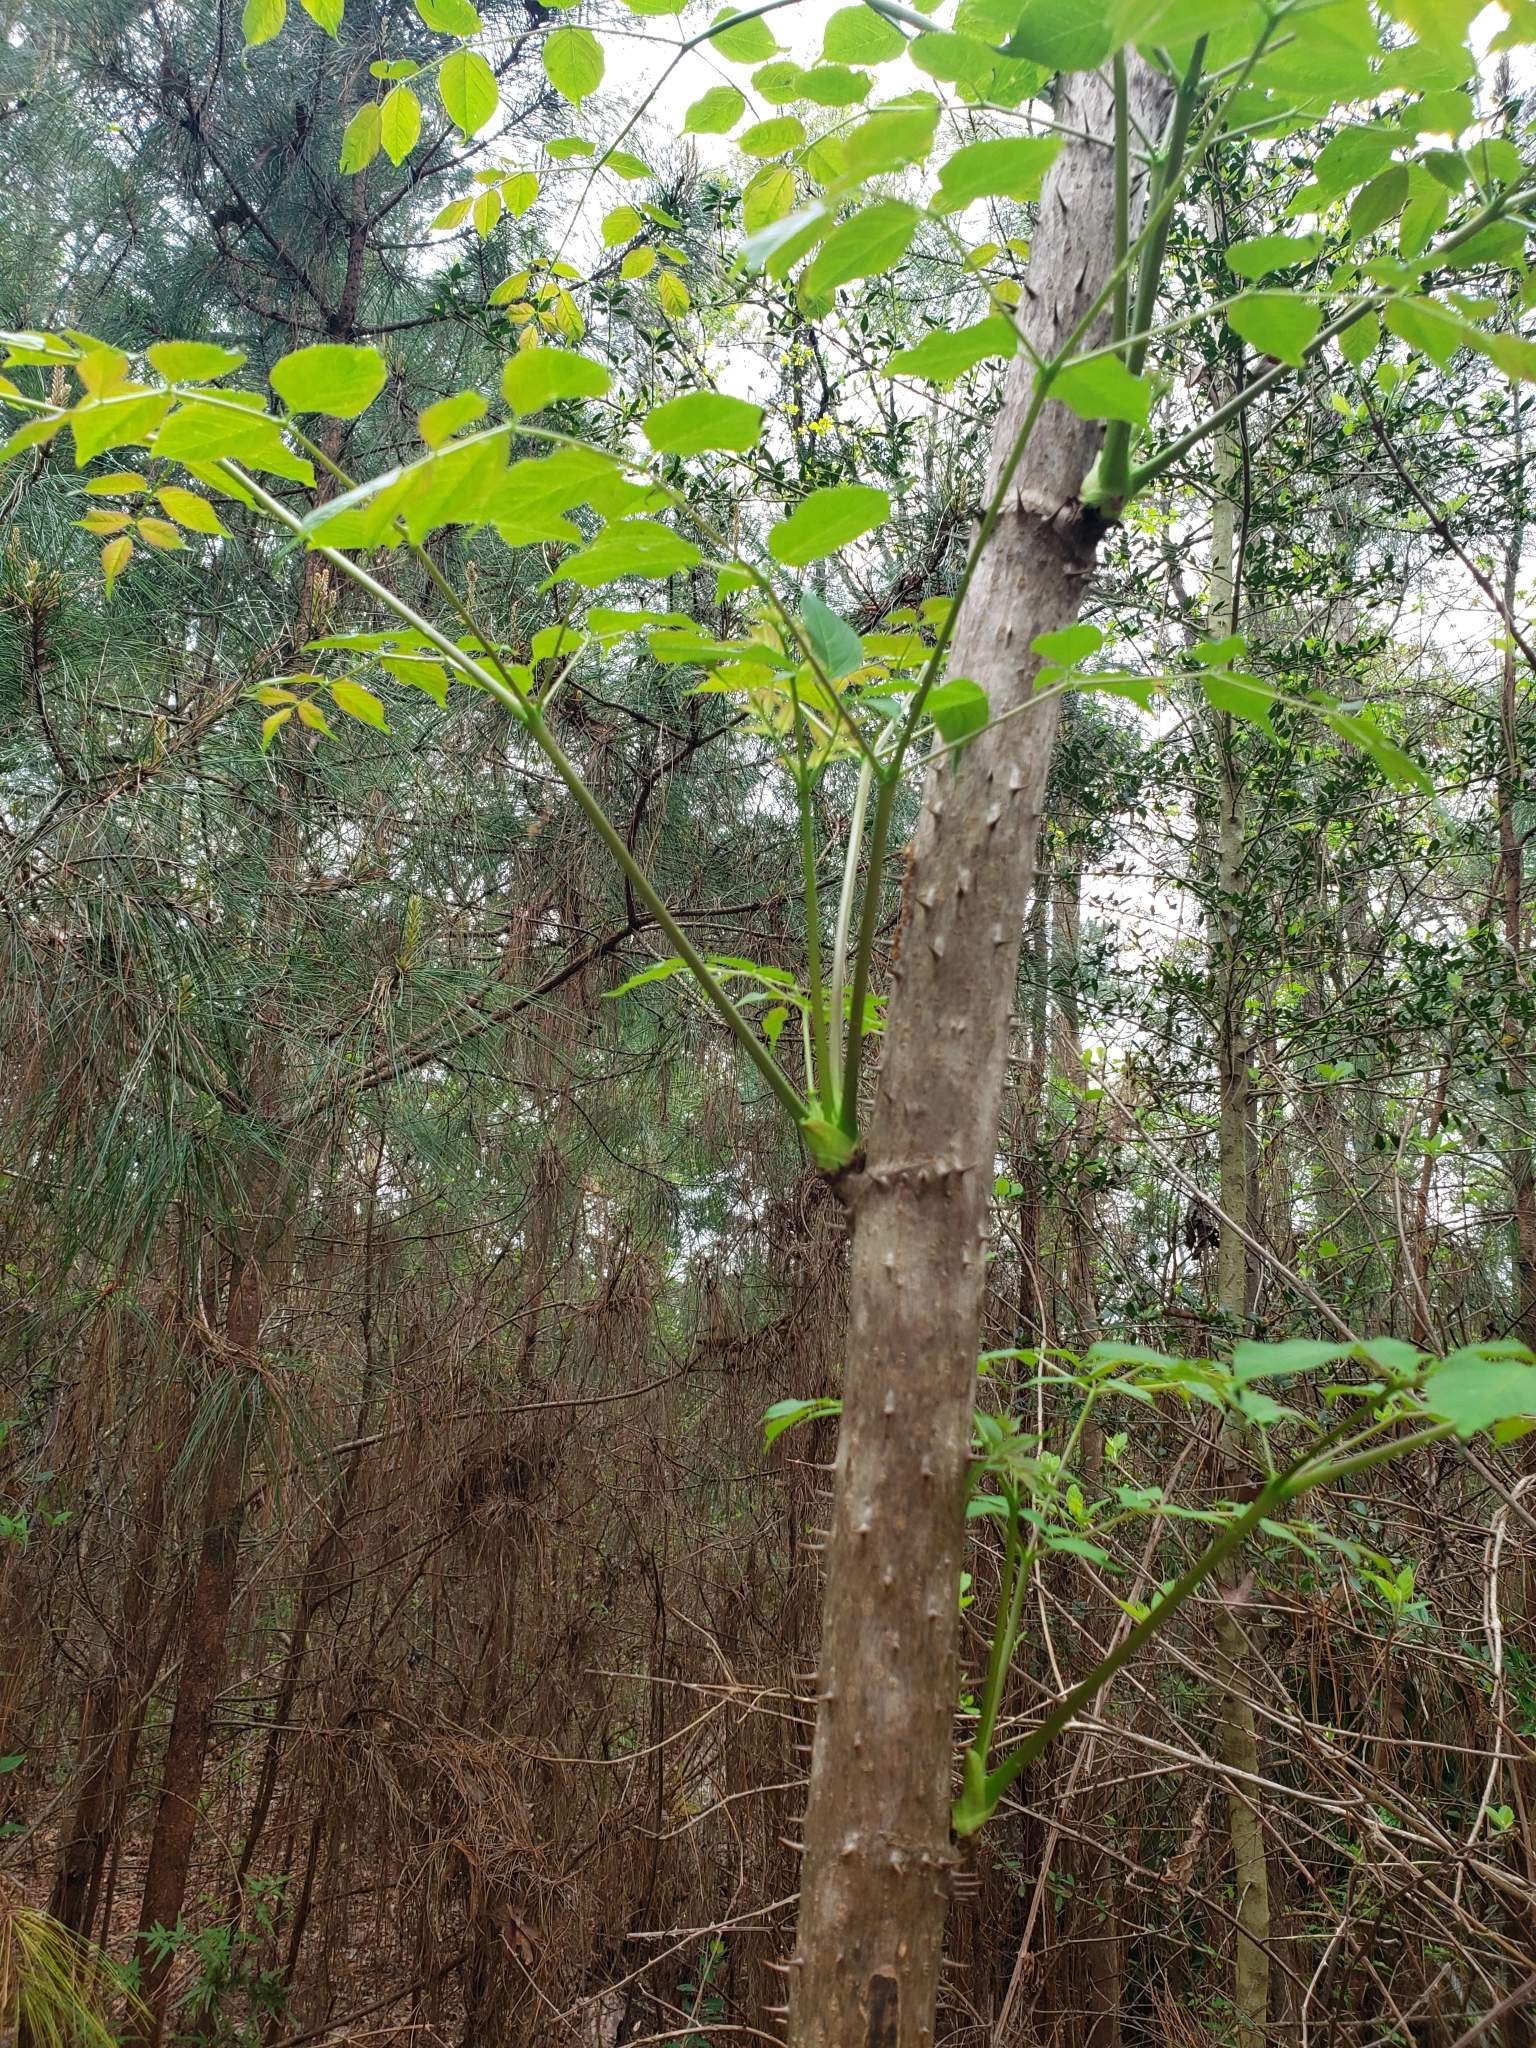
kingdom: Plantae
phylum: Tracheophyta
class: Magnoliopsida
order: Apiales
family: Araliaceae
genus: Aralia
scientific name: Aralia spinosa
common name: Hercules'-club
